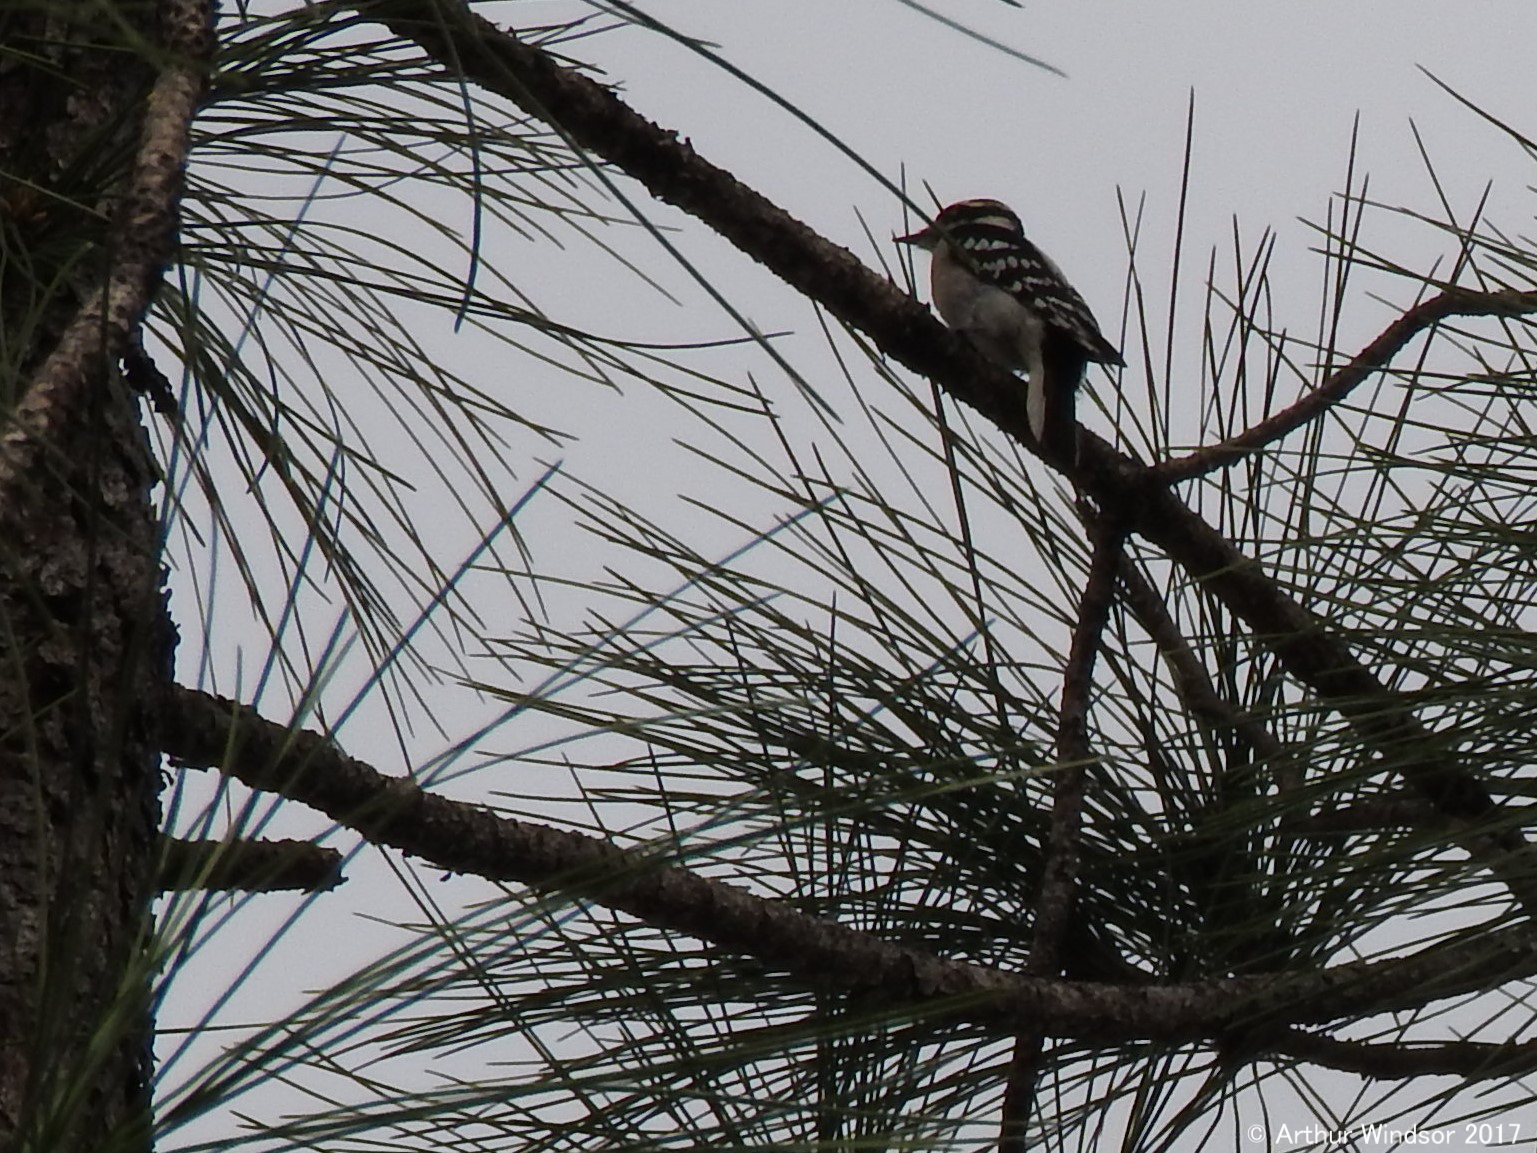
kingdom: Animalia
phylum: Chordata
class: Aves
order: Piciformes
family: Picidae
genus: Dryobates
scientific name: Dryobates pubescens
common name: Downy woodpecker
